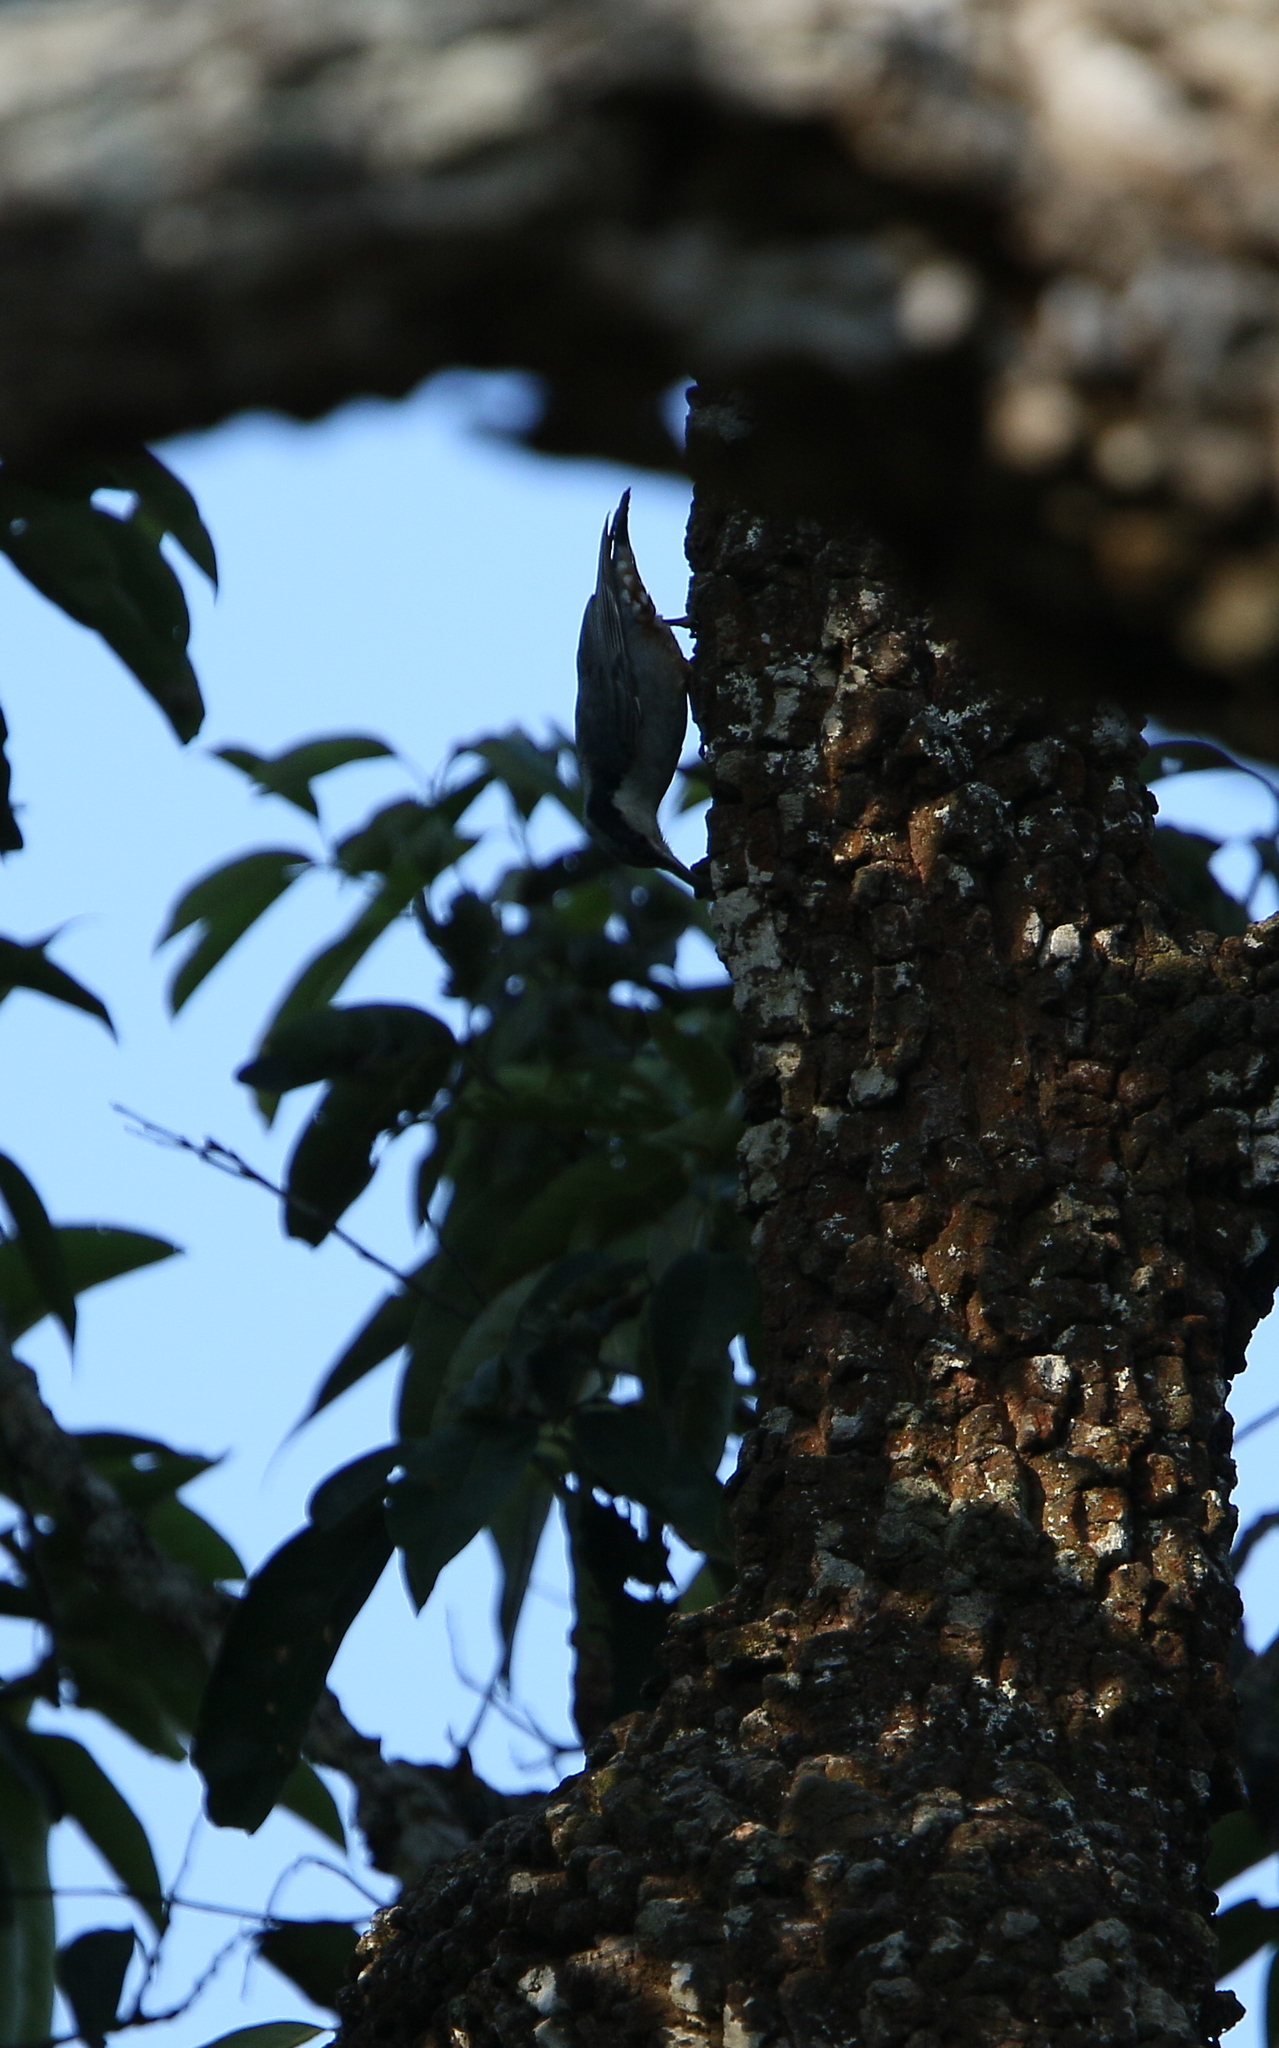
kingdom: Animalia
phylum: Chordata
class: Aves
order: Passeriformes
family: Sittidae
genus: Sitta
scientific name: Sitta magna
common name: Giant nuthatch
